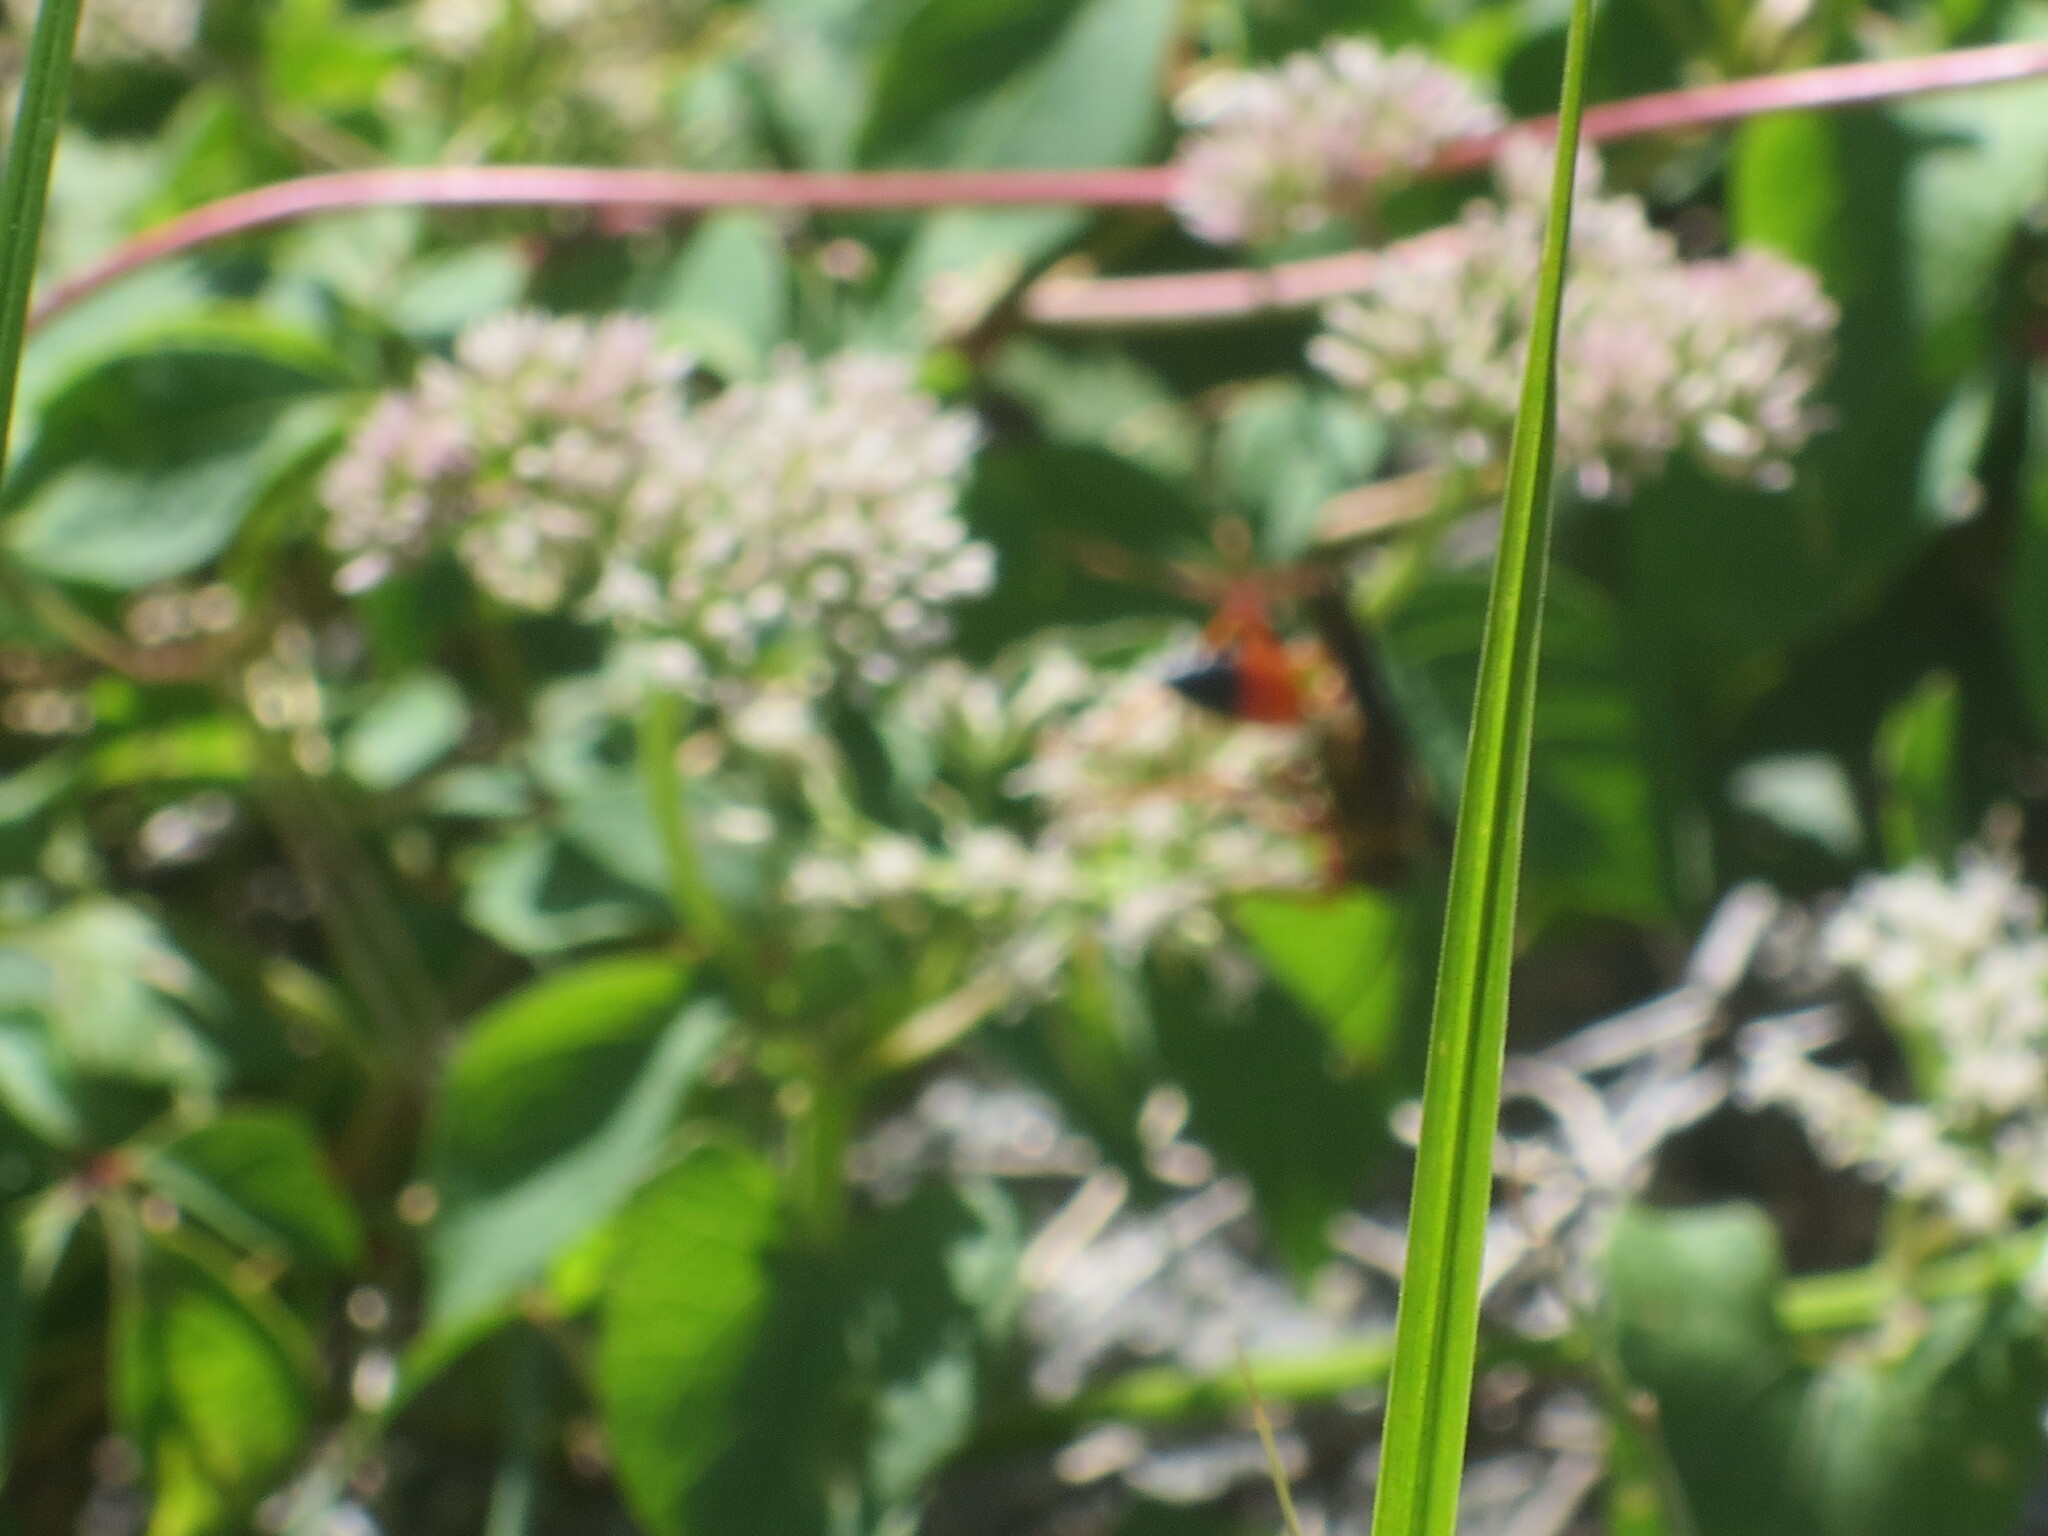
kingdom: Animalia
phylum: Arthropoda
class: Insecta
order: Hymenoptera
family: Sphecidae
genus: Sphex
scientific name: Sphex ichneumoneus
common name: Great golden digger wasp
